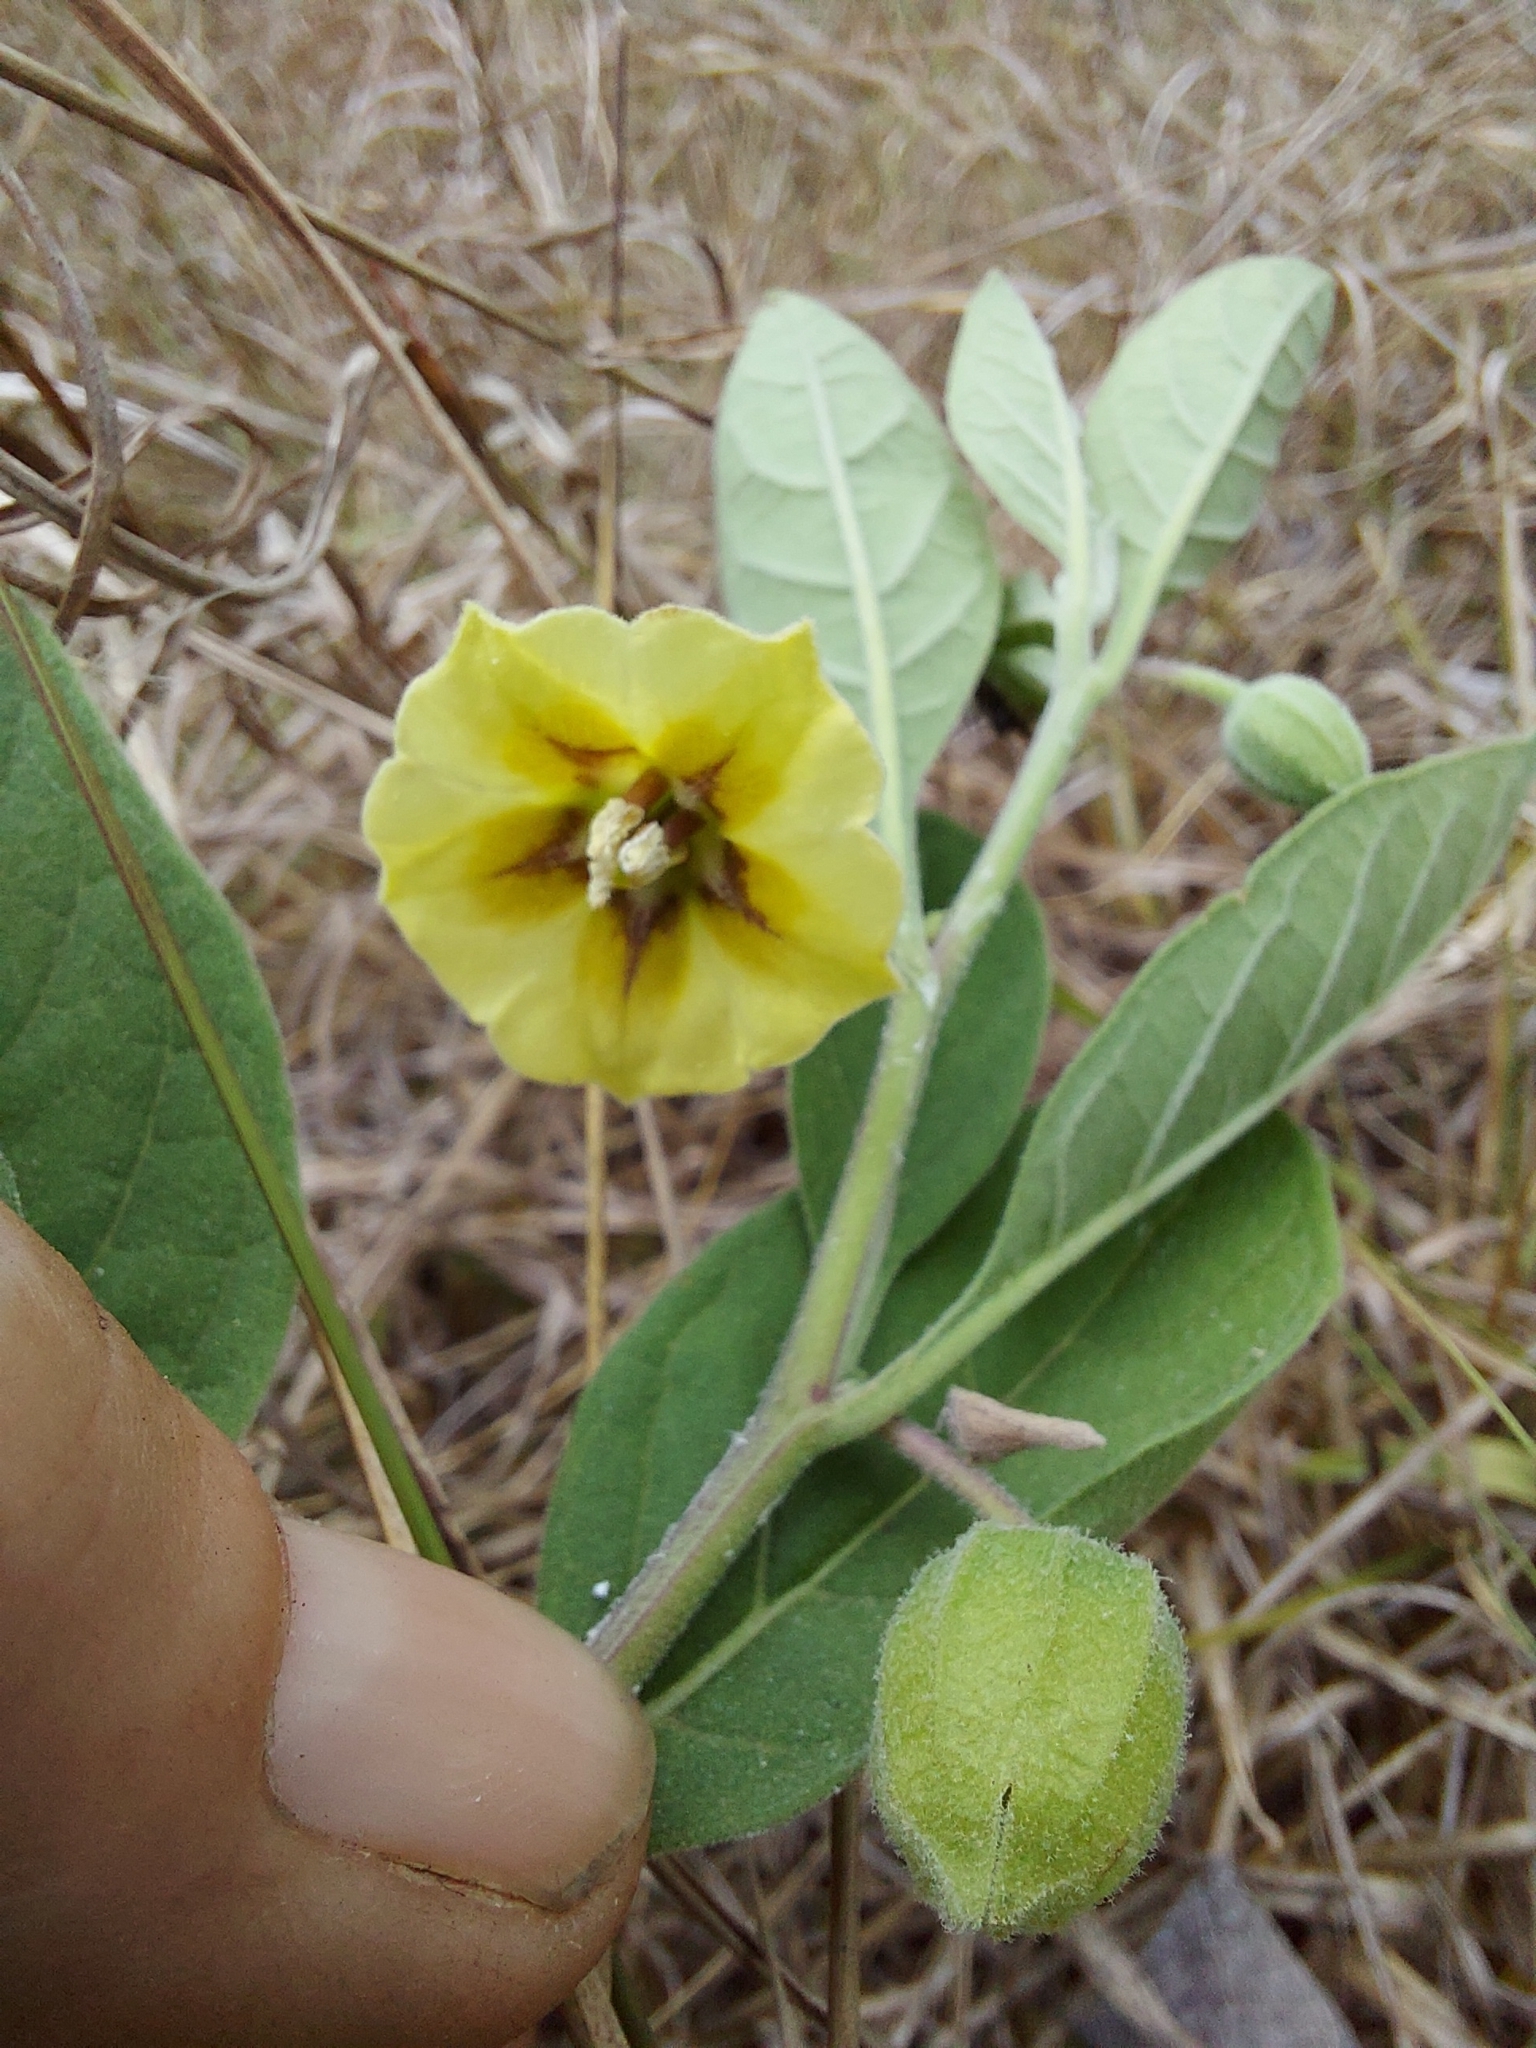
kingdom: Plantae
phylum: Tracheophyta
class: Magnoliopsida
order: Solanales
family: Solanaceae
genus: Physalis
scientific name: Physalis walteri
